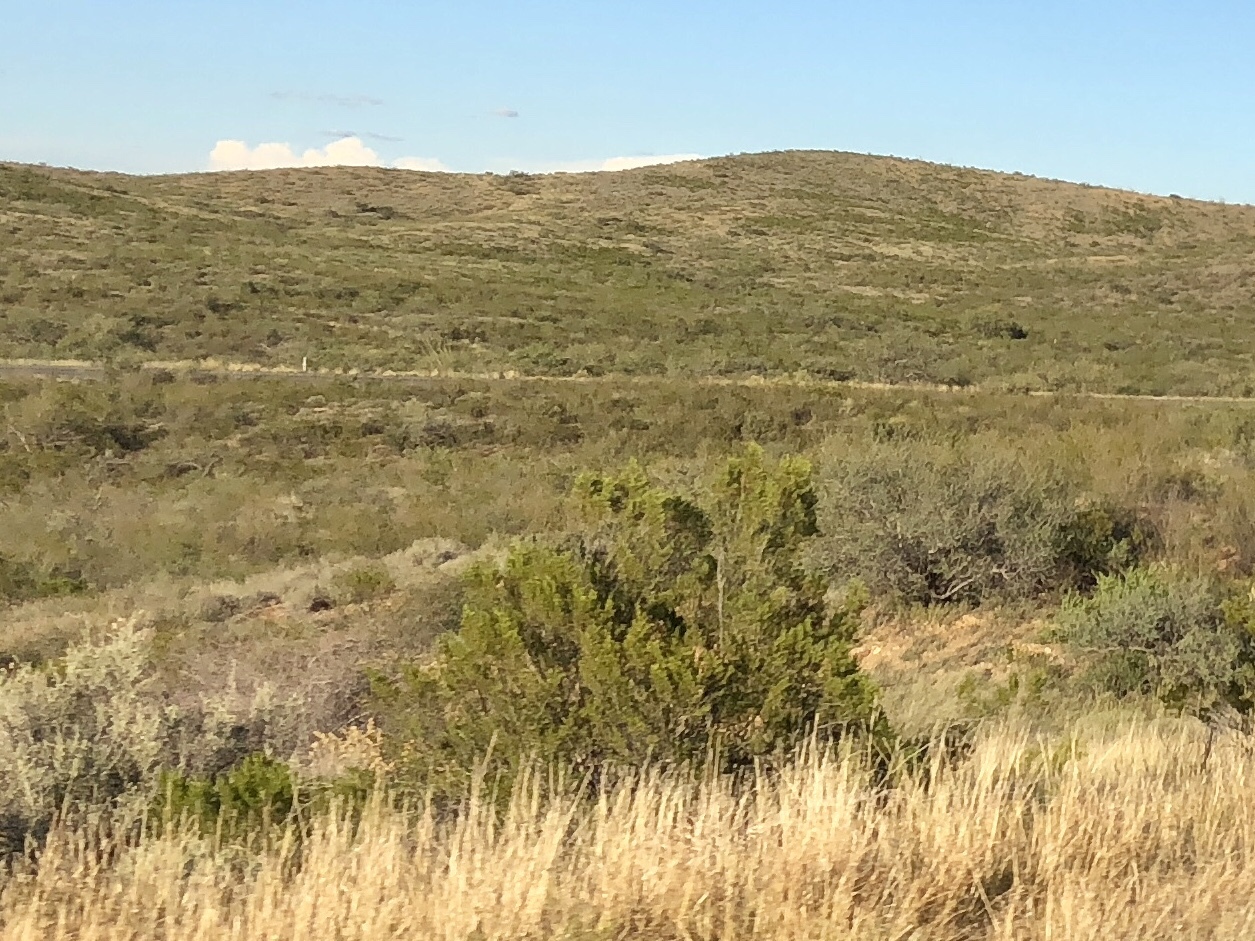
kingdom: Plantae
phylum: Tracheophyta
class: Magnoliopsida
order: Zygophyllales
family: Zygophyllaceae
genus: Larrea
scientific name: Larrea tridentata
